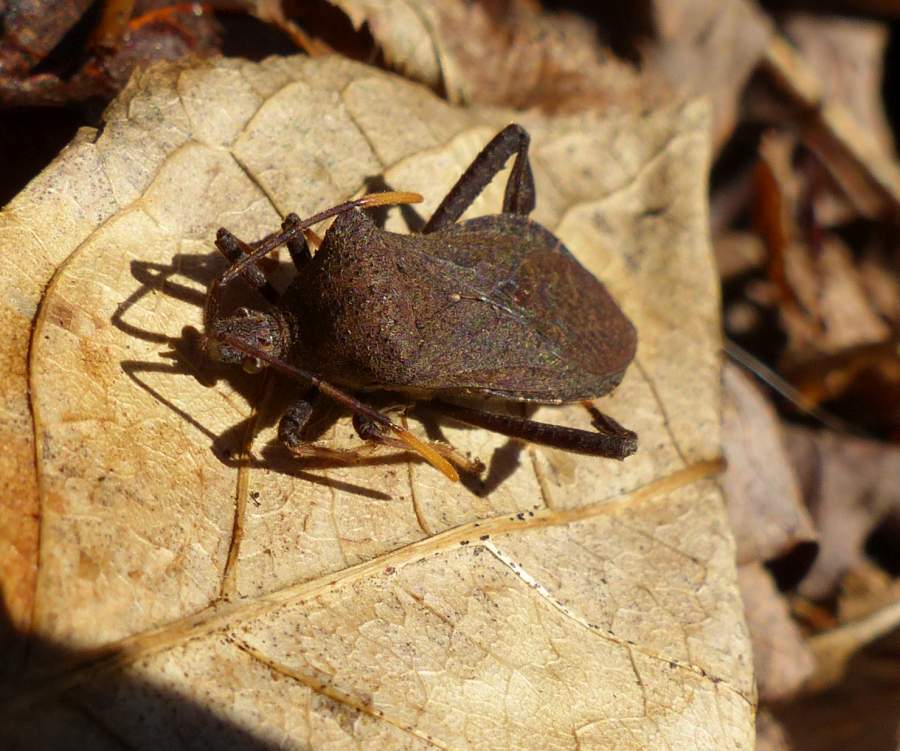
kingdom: Animalia
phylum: Arthropoda
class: Insecta
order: Hemiptera
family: Coreidae
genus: Acanthocephala
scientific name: Acanthocephala terminalis
